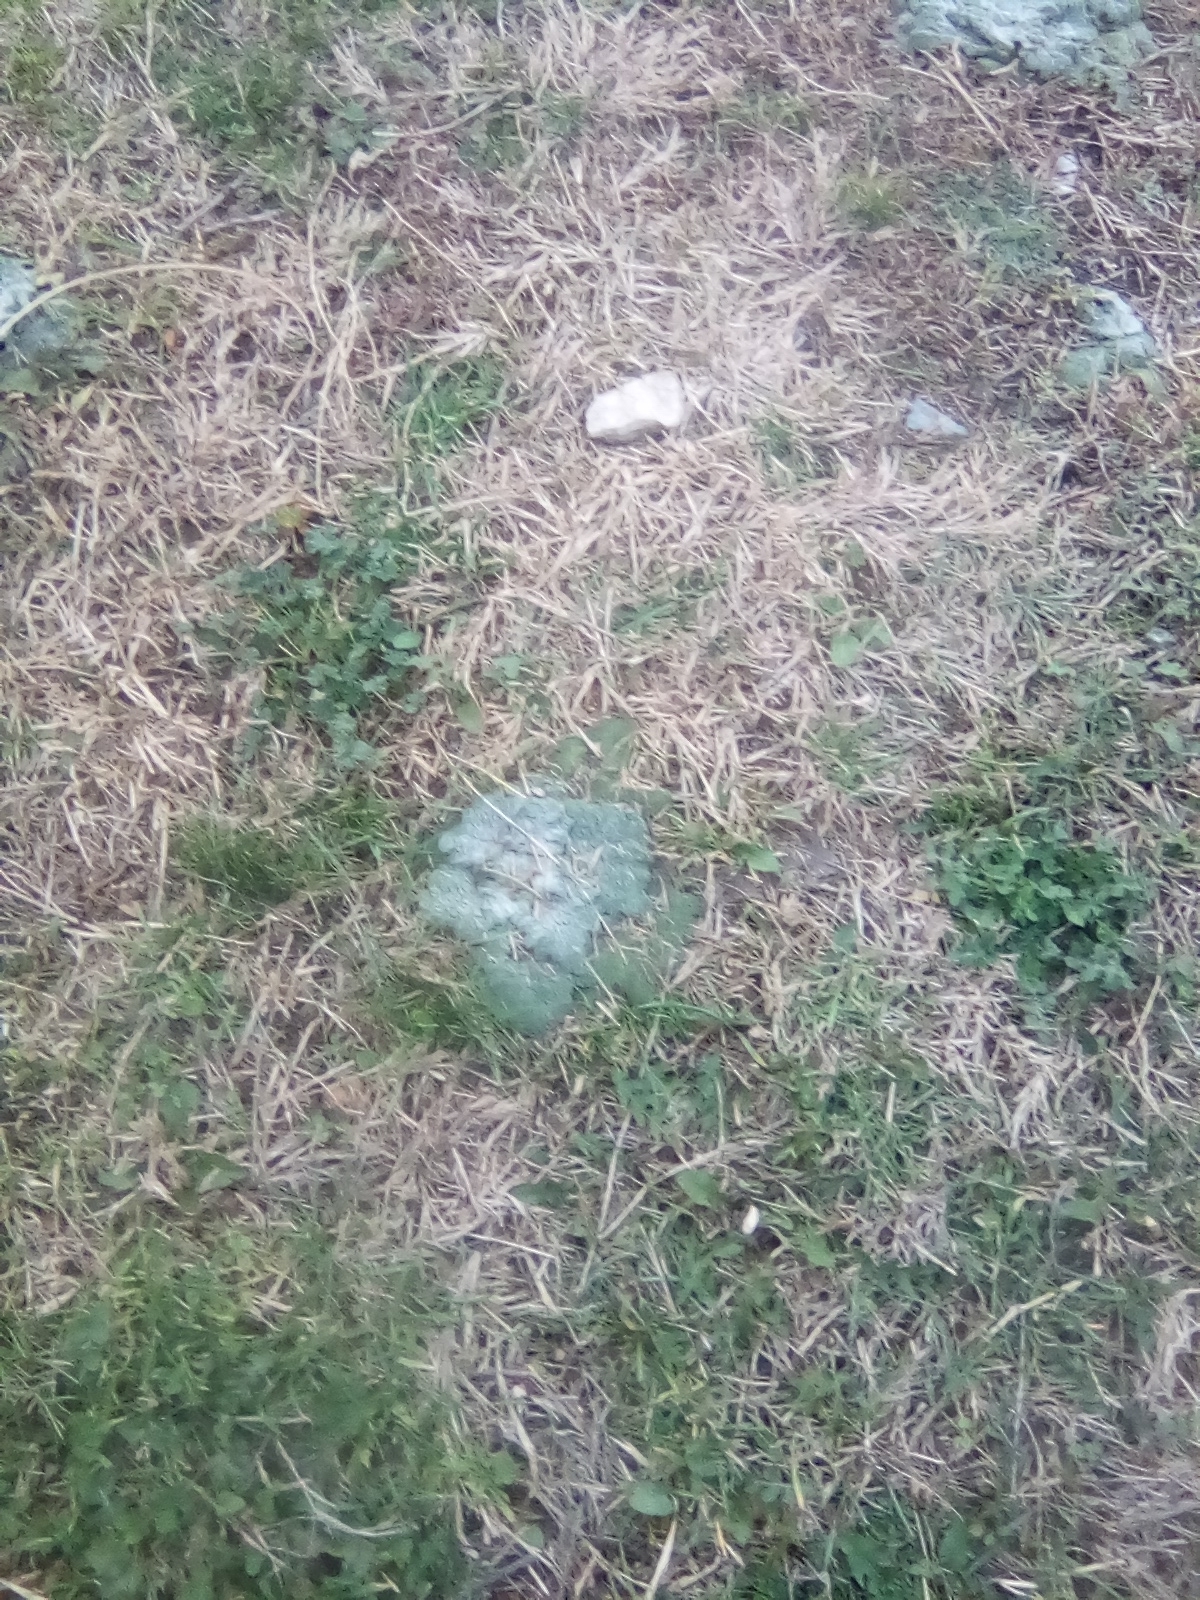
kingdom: Plantae
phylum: Tracheophyta
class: Magnoliopsida
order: Lamiales
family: Lamiaceae
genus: Salvia
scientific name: Salvia aethiopis
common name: Mediterranean sage
